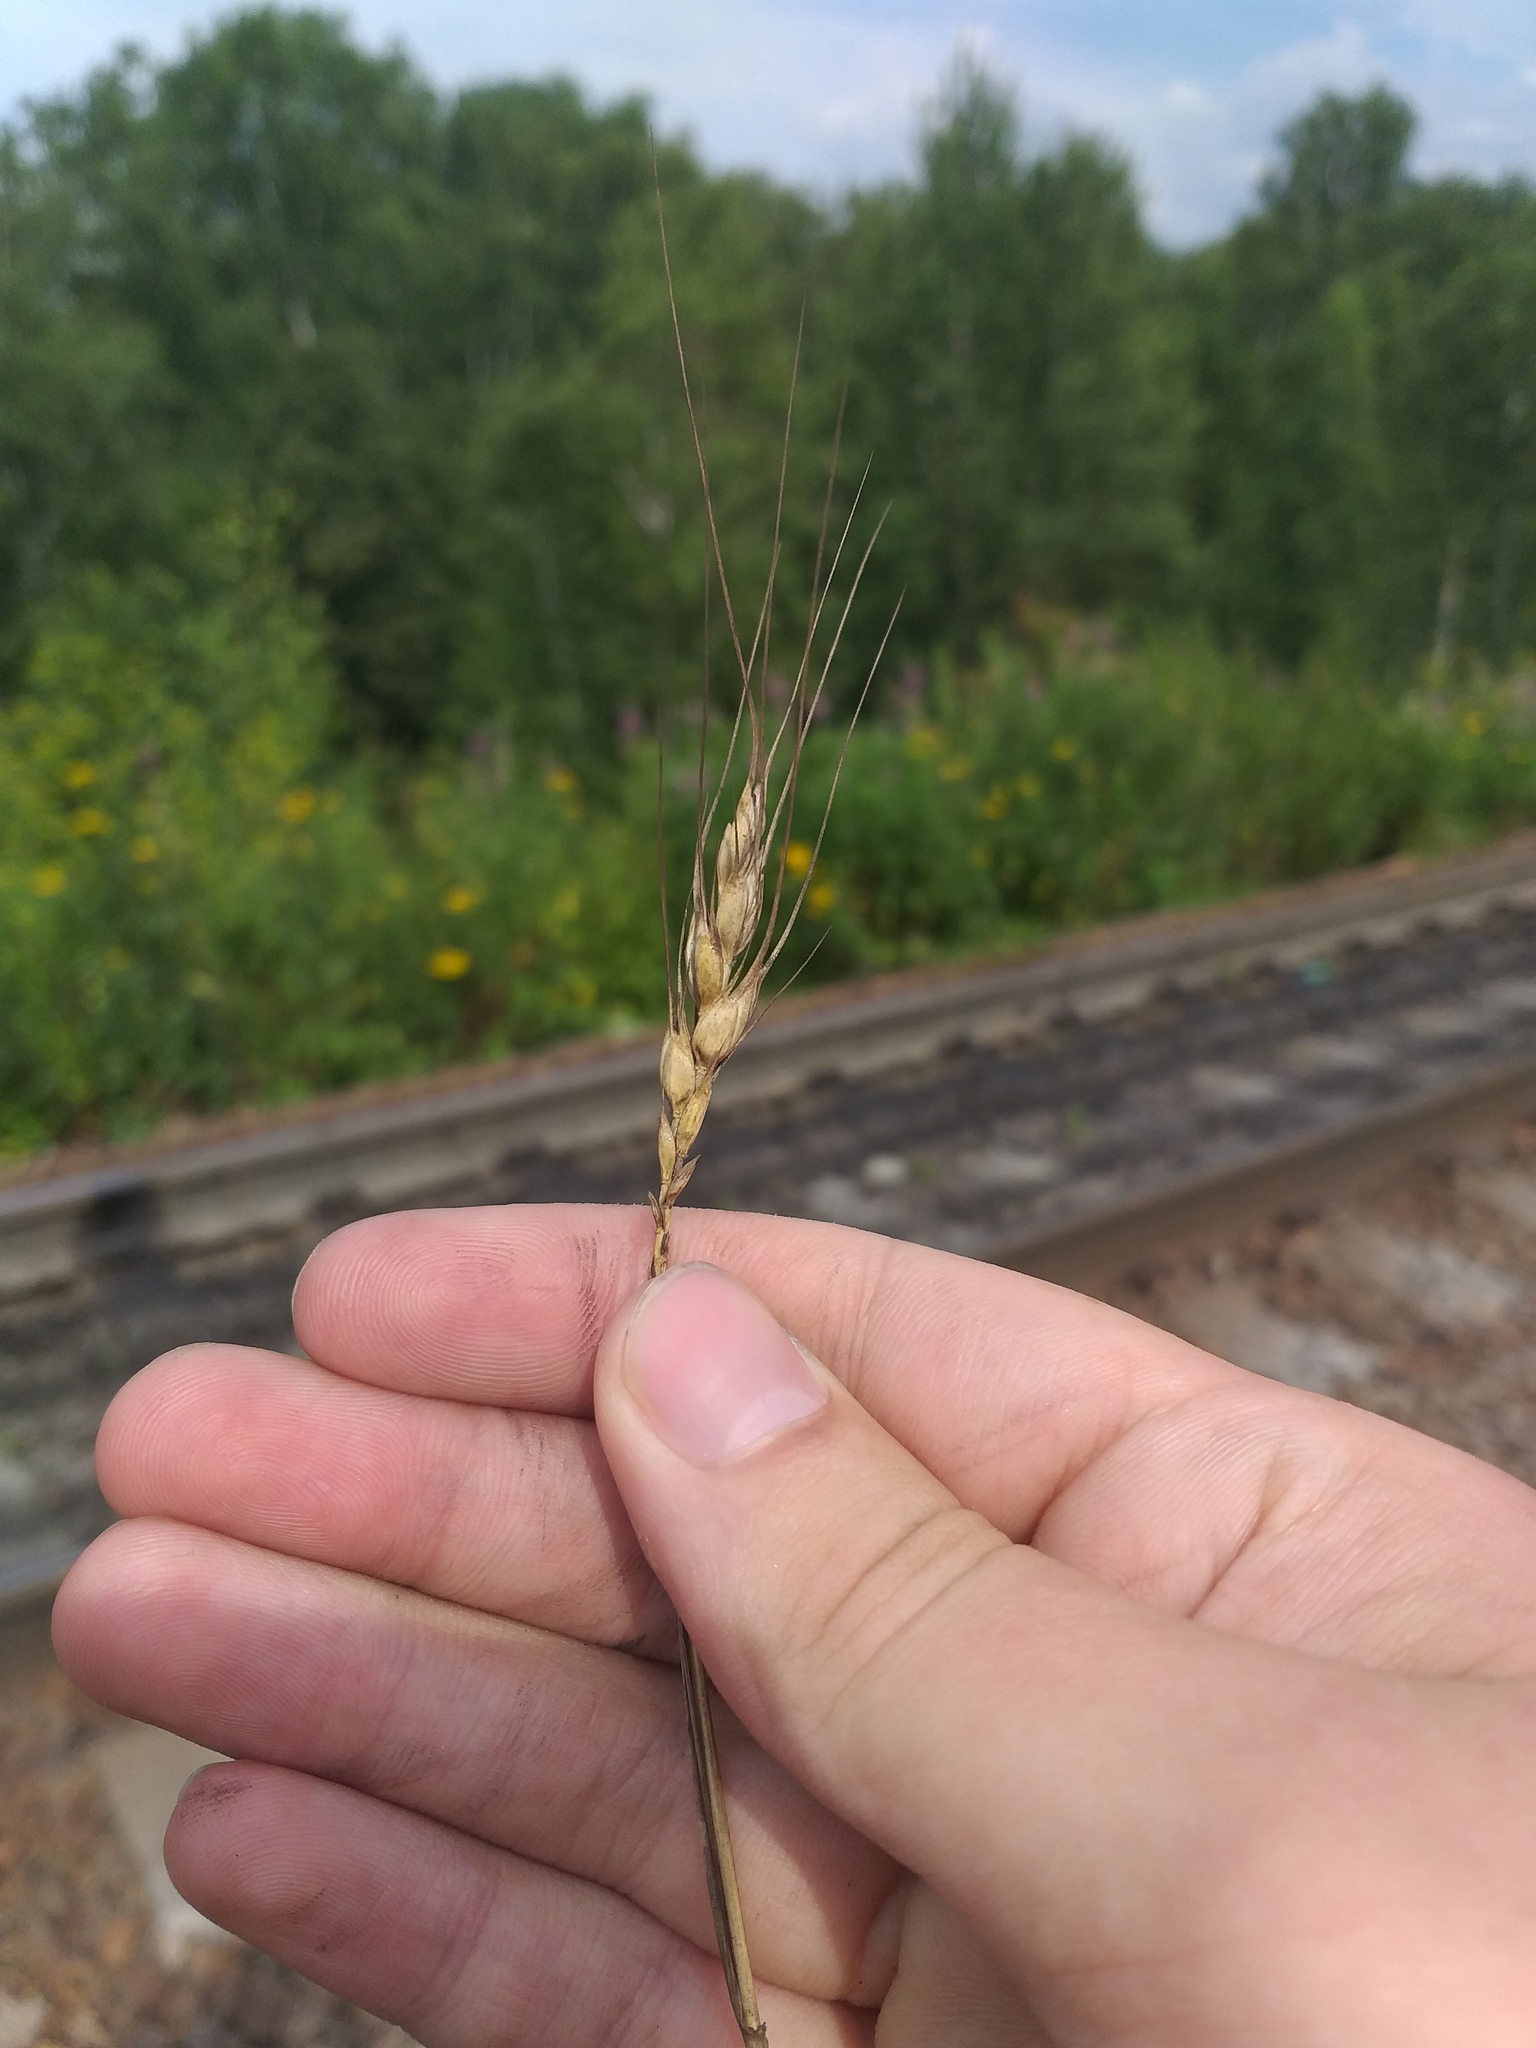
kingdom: Plantae
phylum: Tracheophyta
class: Liliopsida
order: Poales
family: Poaceae
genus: Triticum
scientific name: Triticum aestivum
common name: Common wheat
